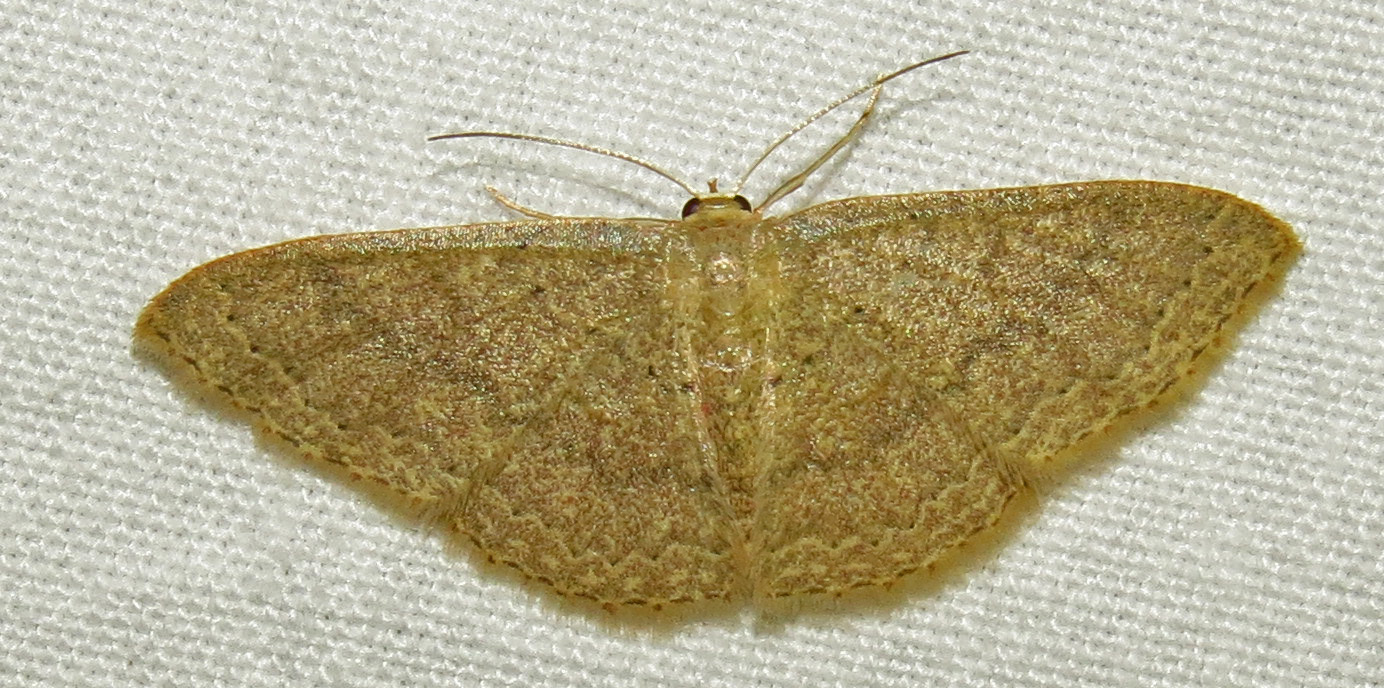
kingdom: Animalia
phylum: Arthropoda
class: Insecta
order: Lepidoptera
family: Geometridae
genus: Pleuroprucha
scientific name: Pleuroprucha insulsaria
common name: Common tan wave
